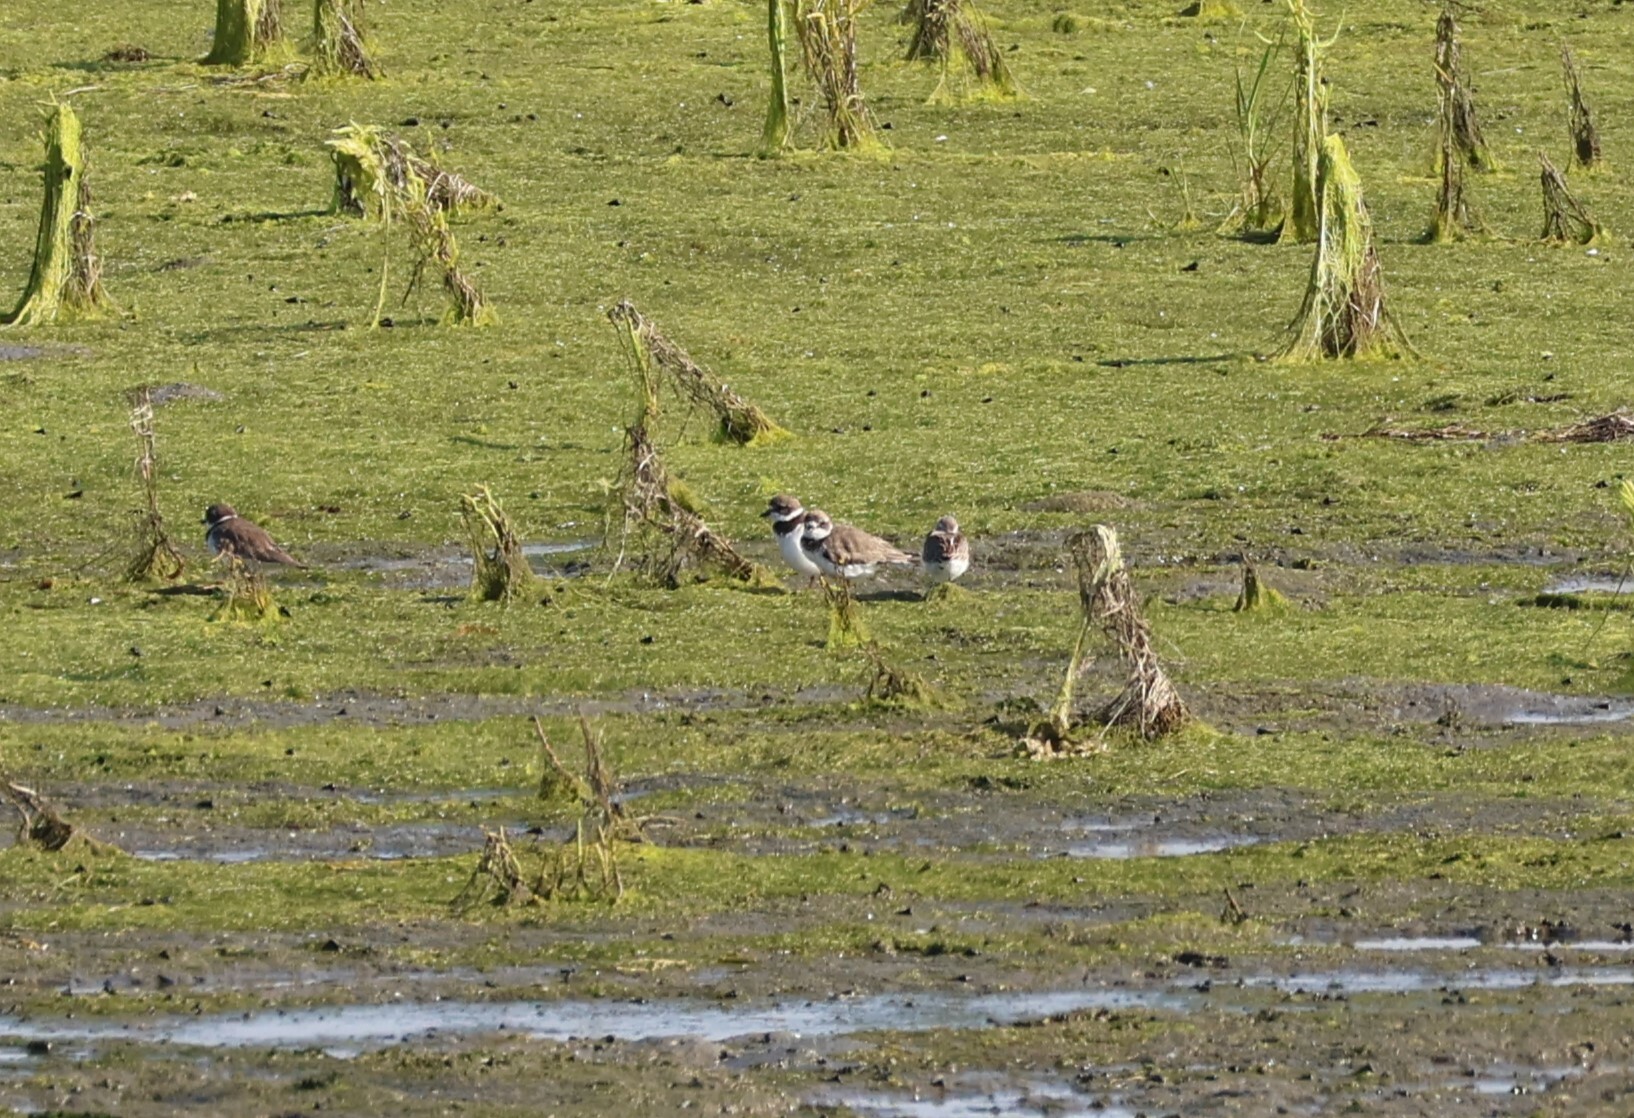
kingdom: Animalia
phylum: Chordata
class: Aves
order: Charadriiformes
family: Charadriidae
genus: Charadrius
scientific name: Charadrius semipalmatus
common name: Semipalmated plover
